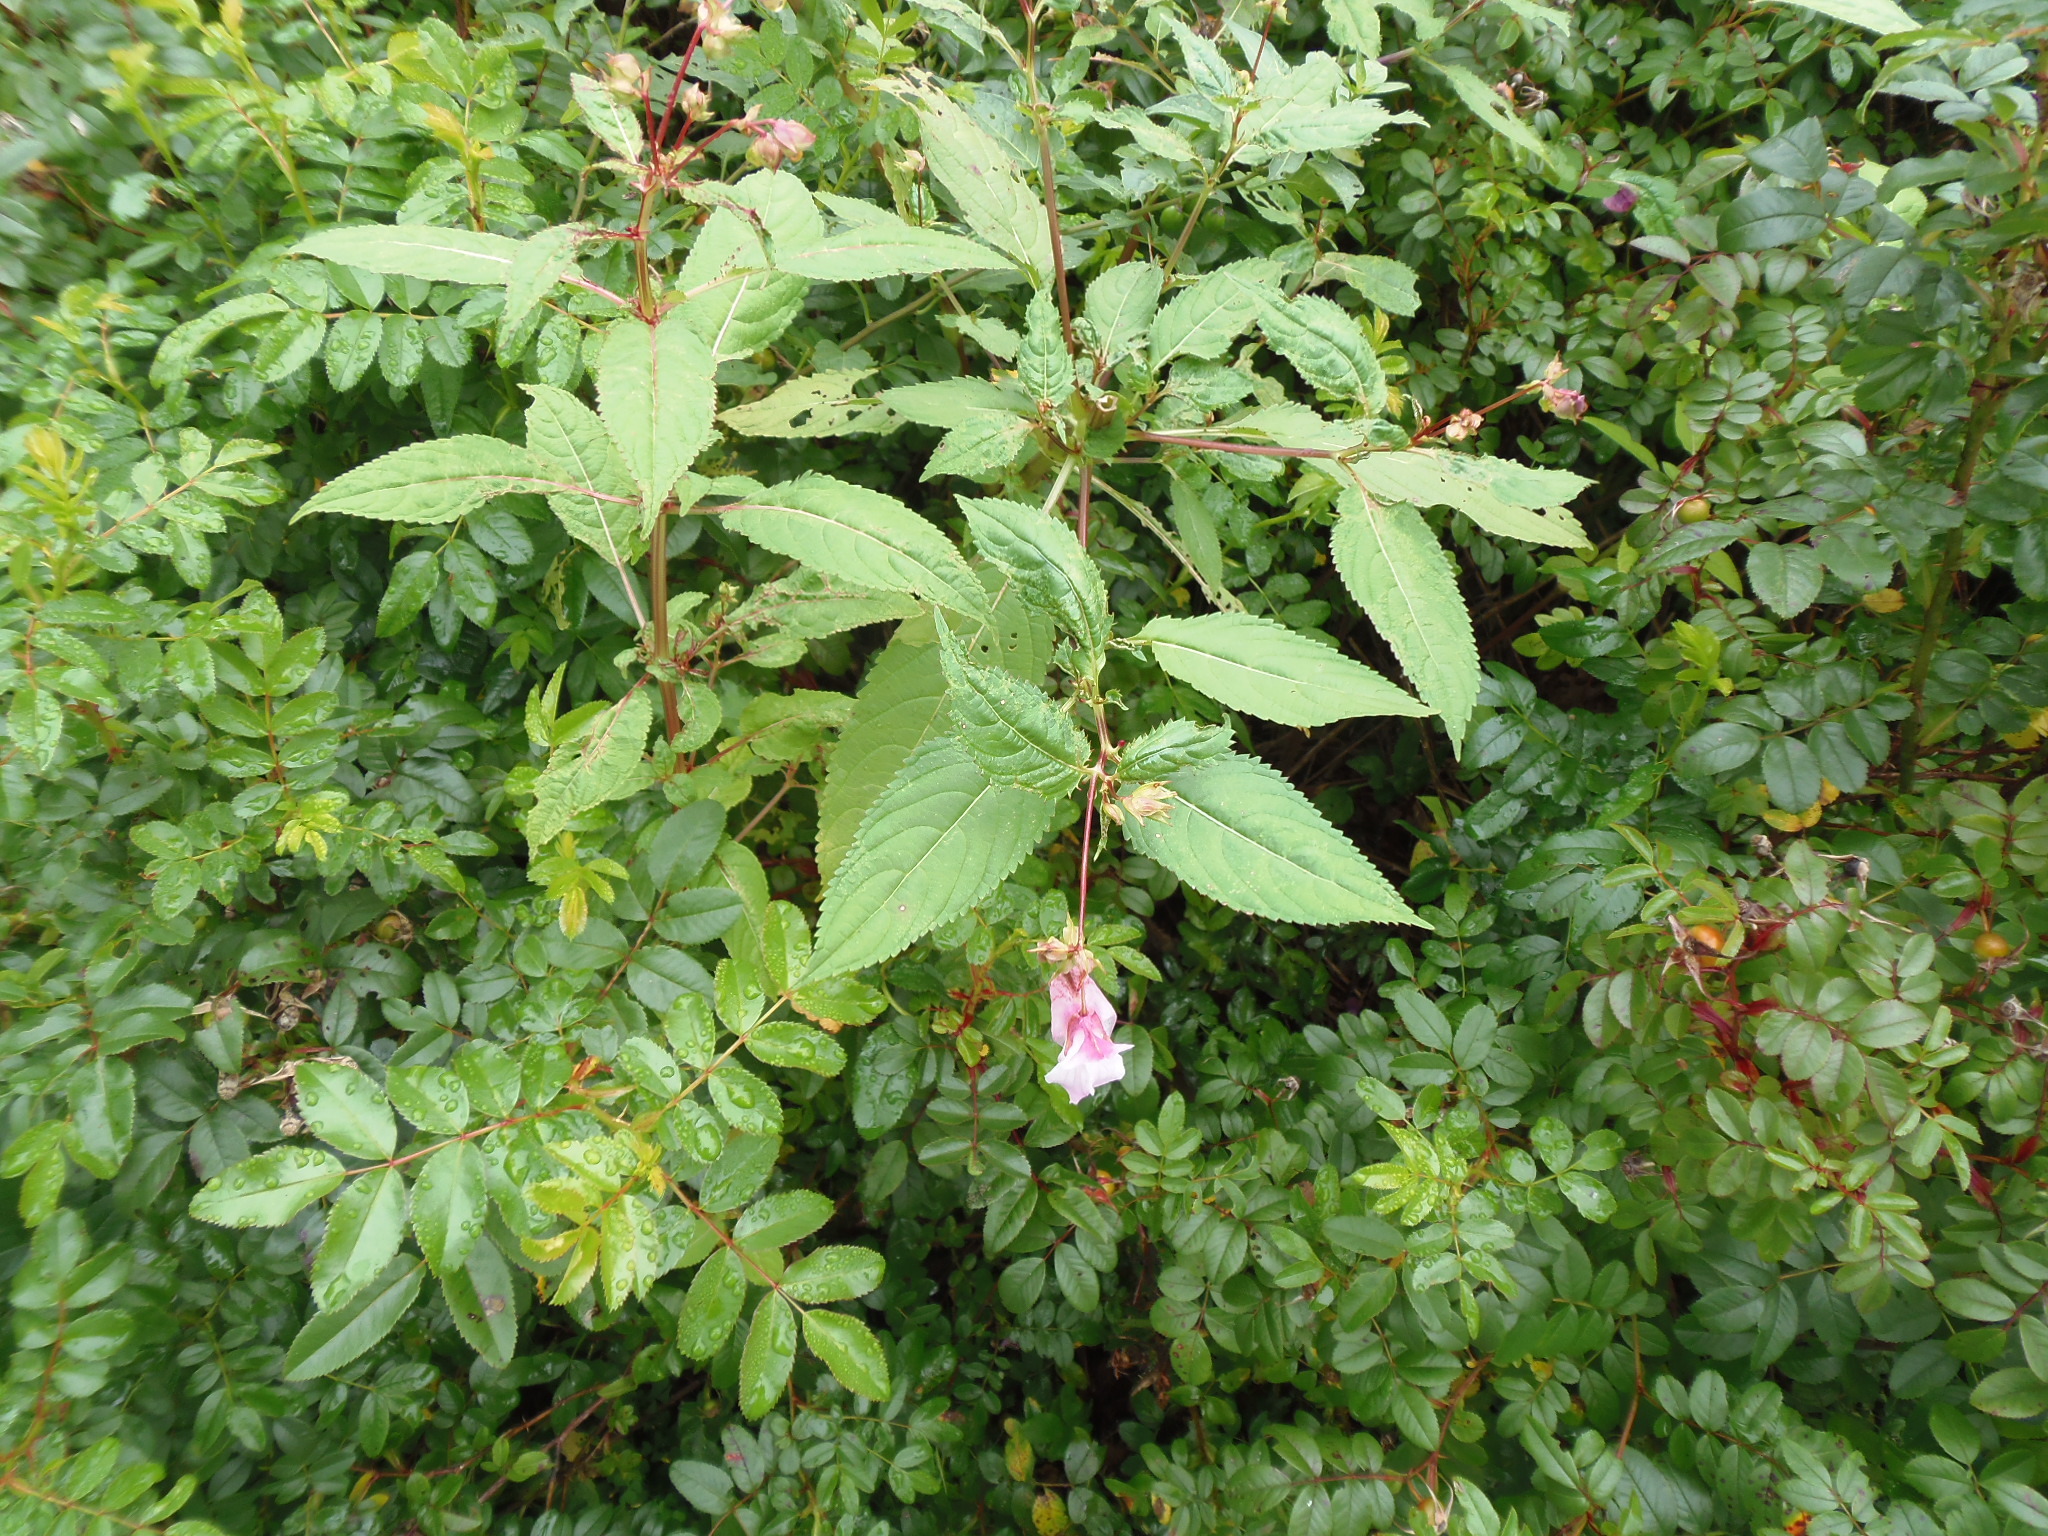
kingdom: Plantae
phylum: Tracheophyta
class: Magnoliopsida
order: Ericales
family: Balsaminaceae
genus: Impatiens
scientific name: Impatiens glandulifera
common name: Himalayan balsam
